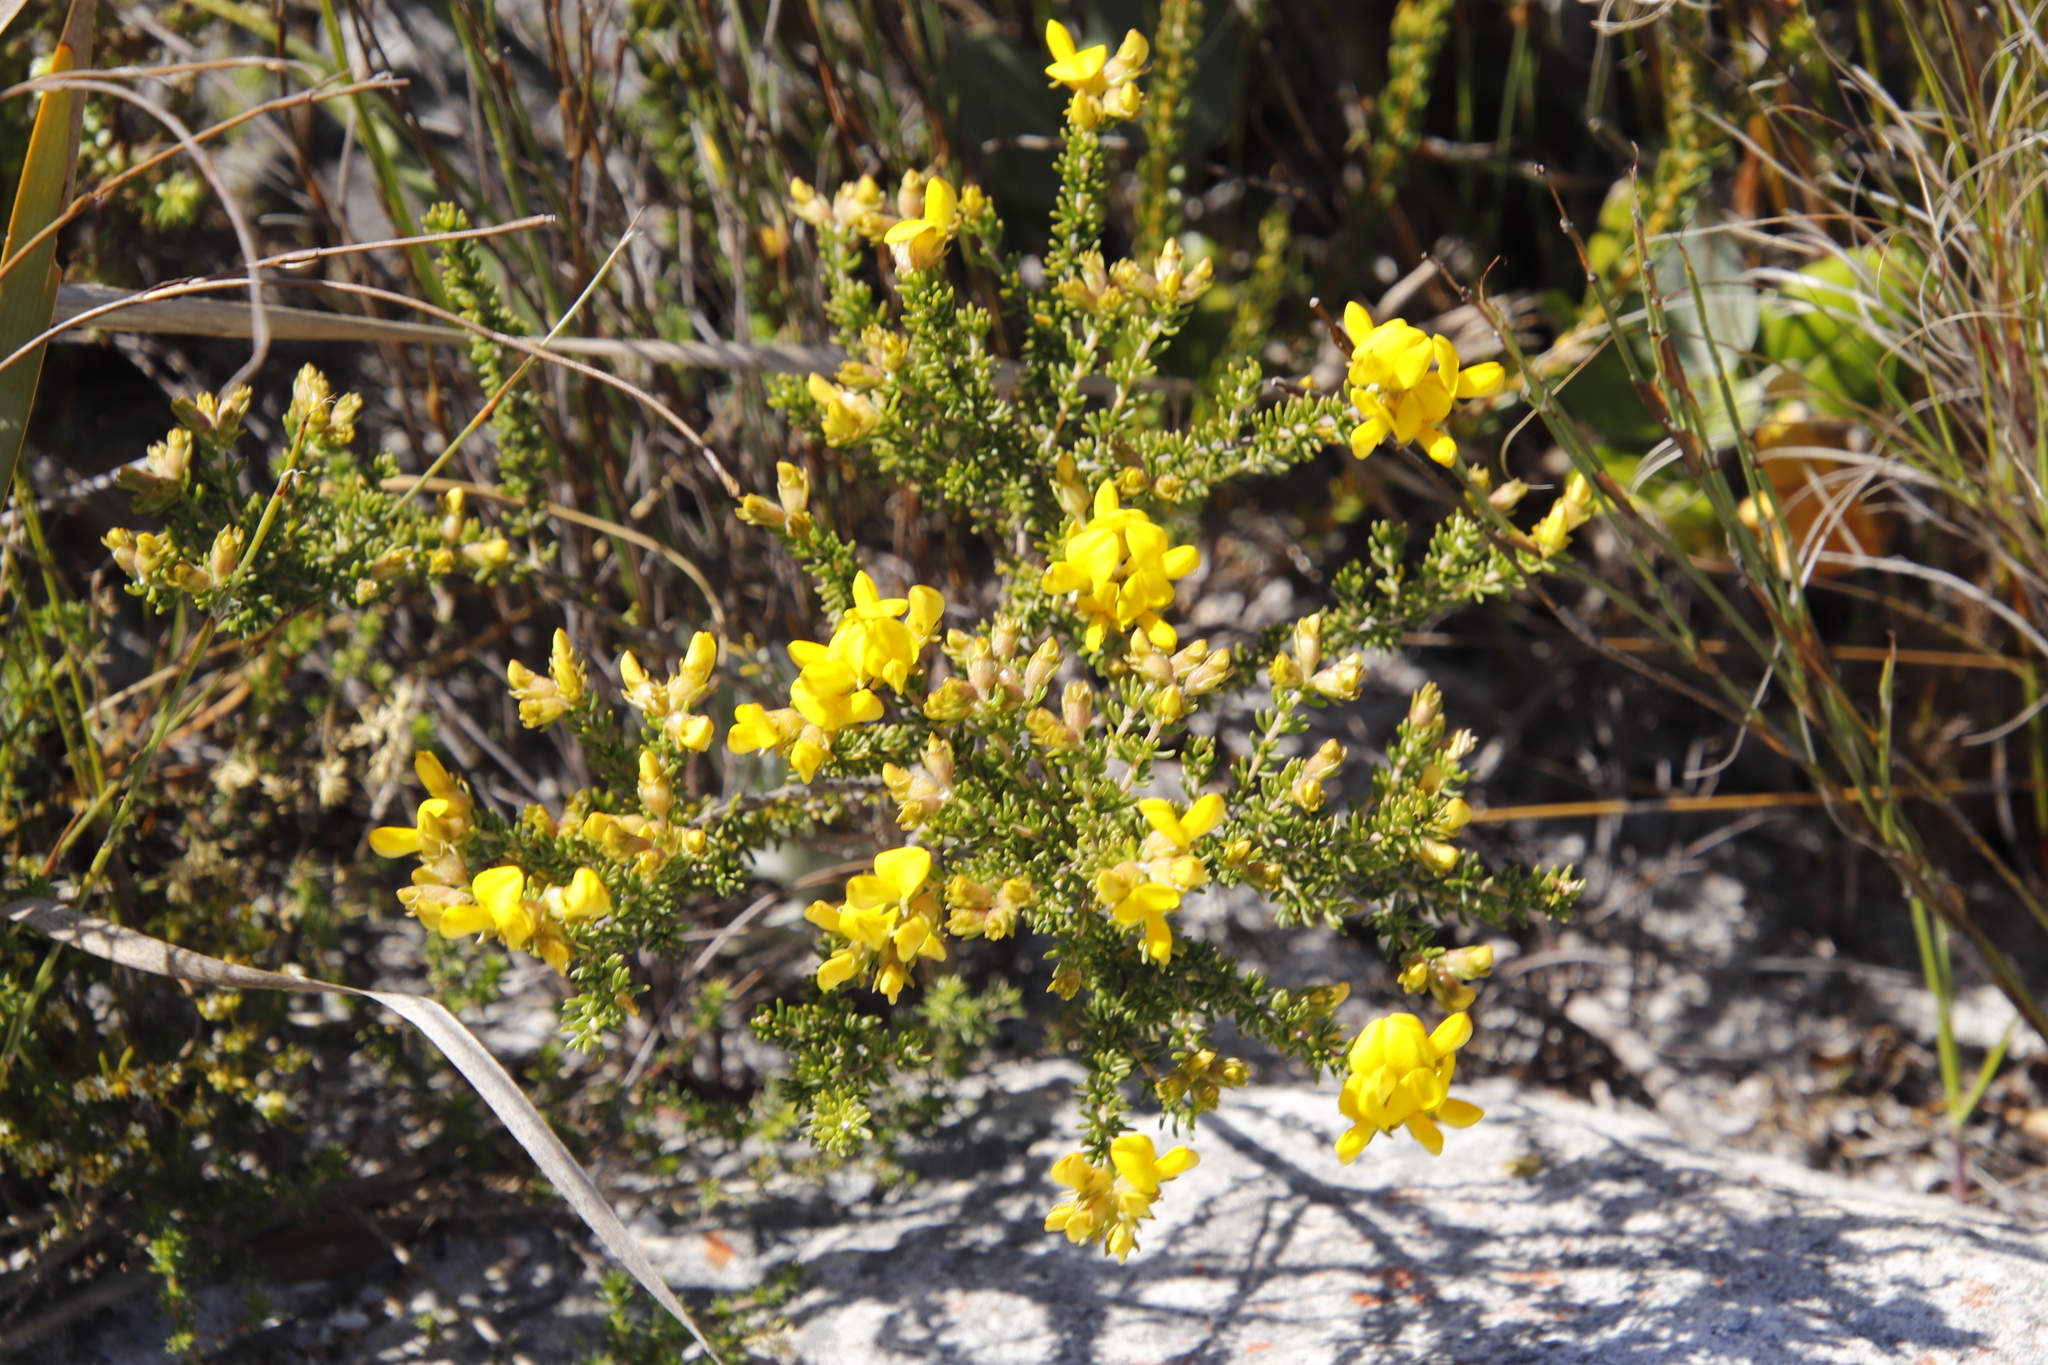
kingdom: Plantae
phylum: Tracheophyta
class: Magnoliopsida
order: Fabales
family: Fabaceae
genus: Aspalathus
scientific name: Aspalathus carnosa
